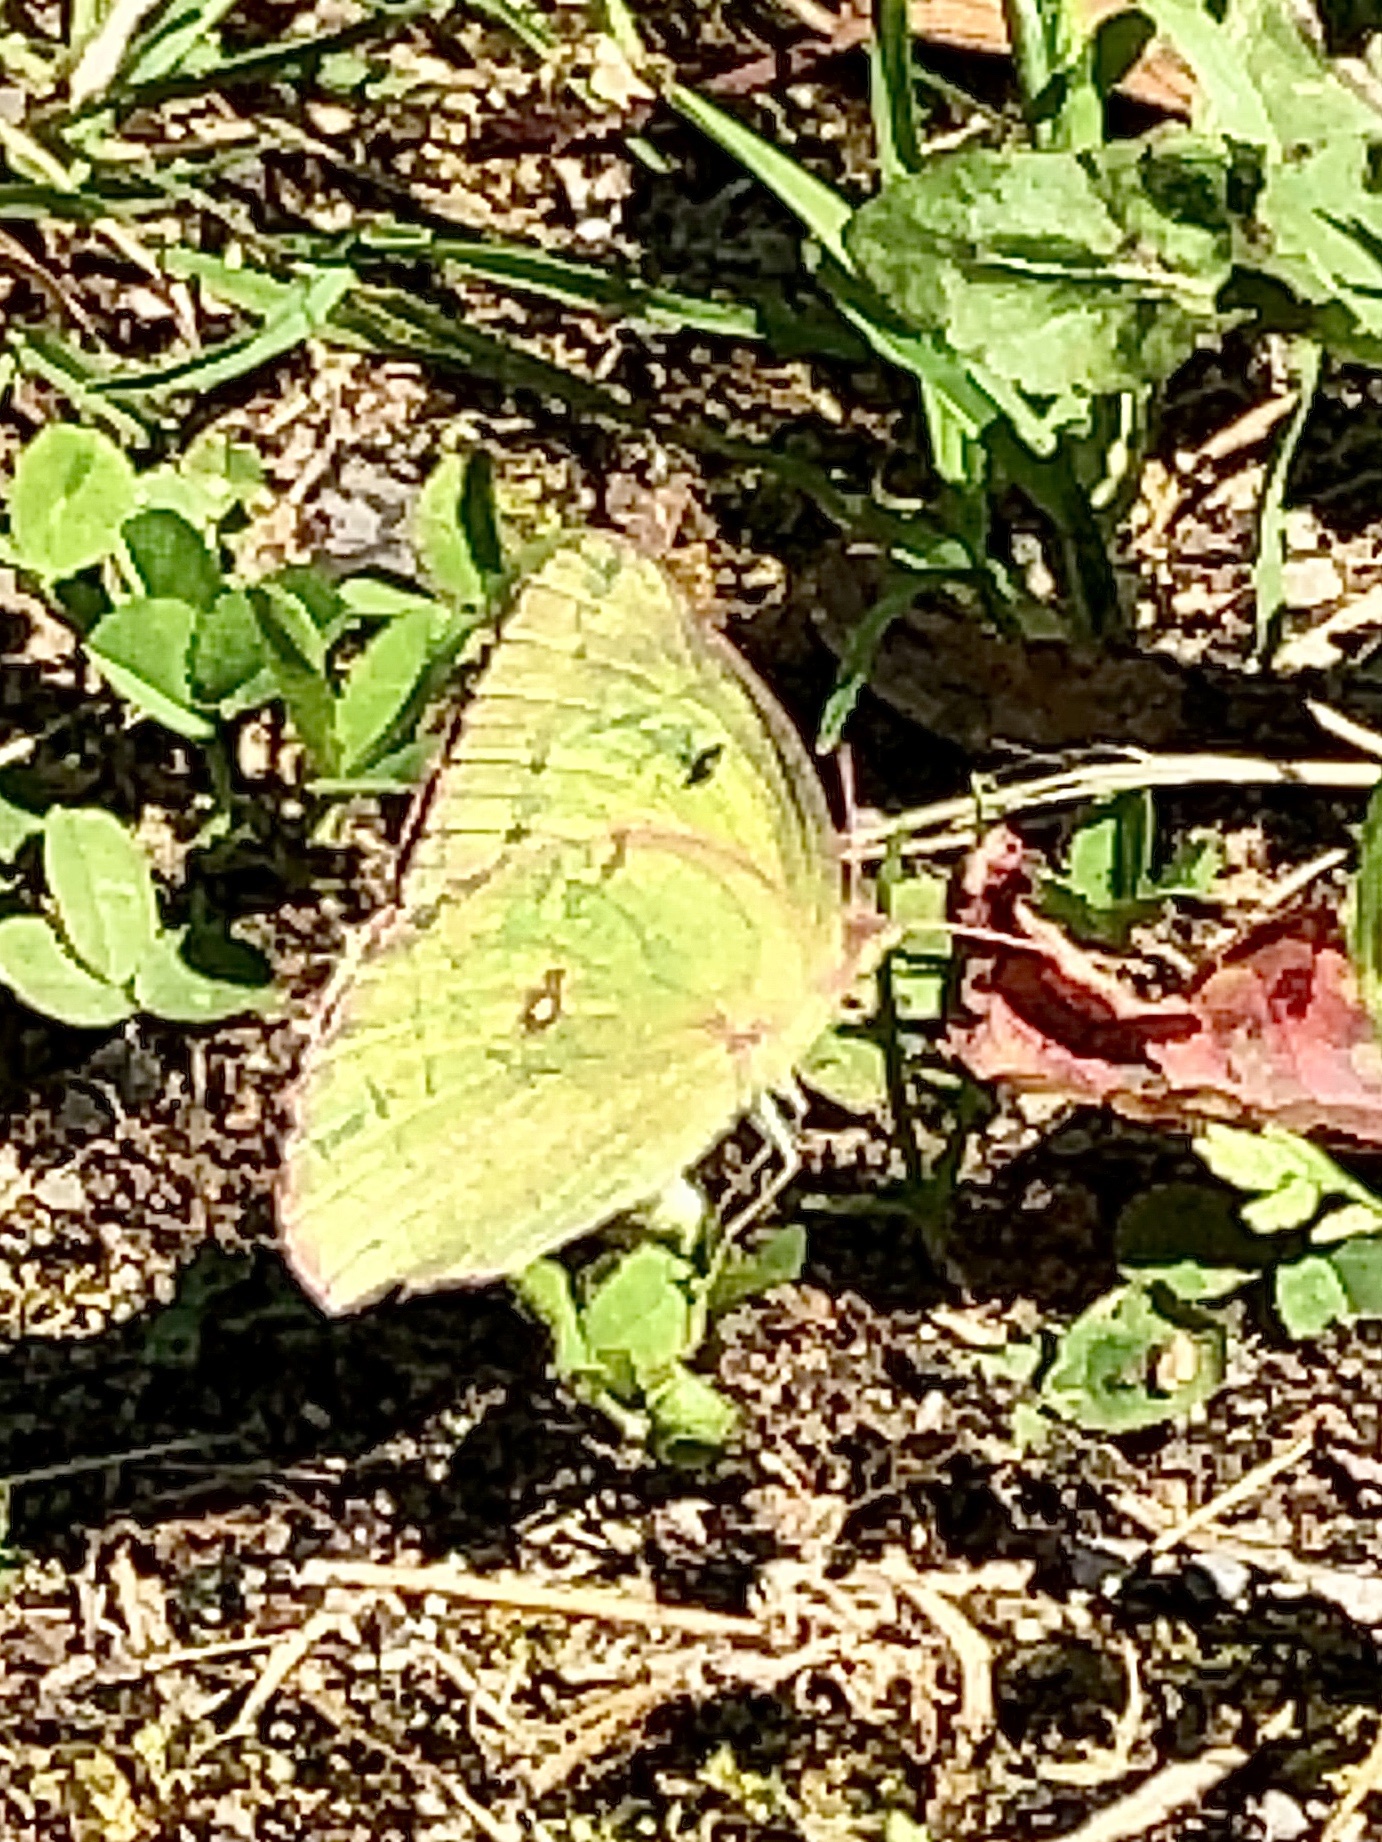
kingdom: Animalia
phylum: Arthropoda
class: Insecta
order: Lepidoptera
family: Pieridae
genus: Colias
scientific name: Colias philodice
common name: Clouded sulphur
